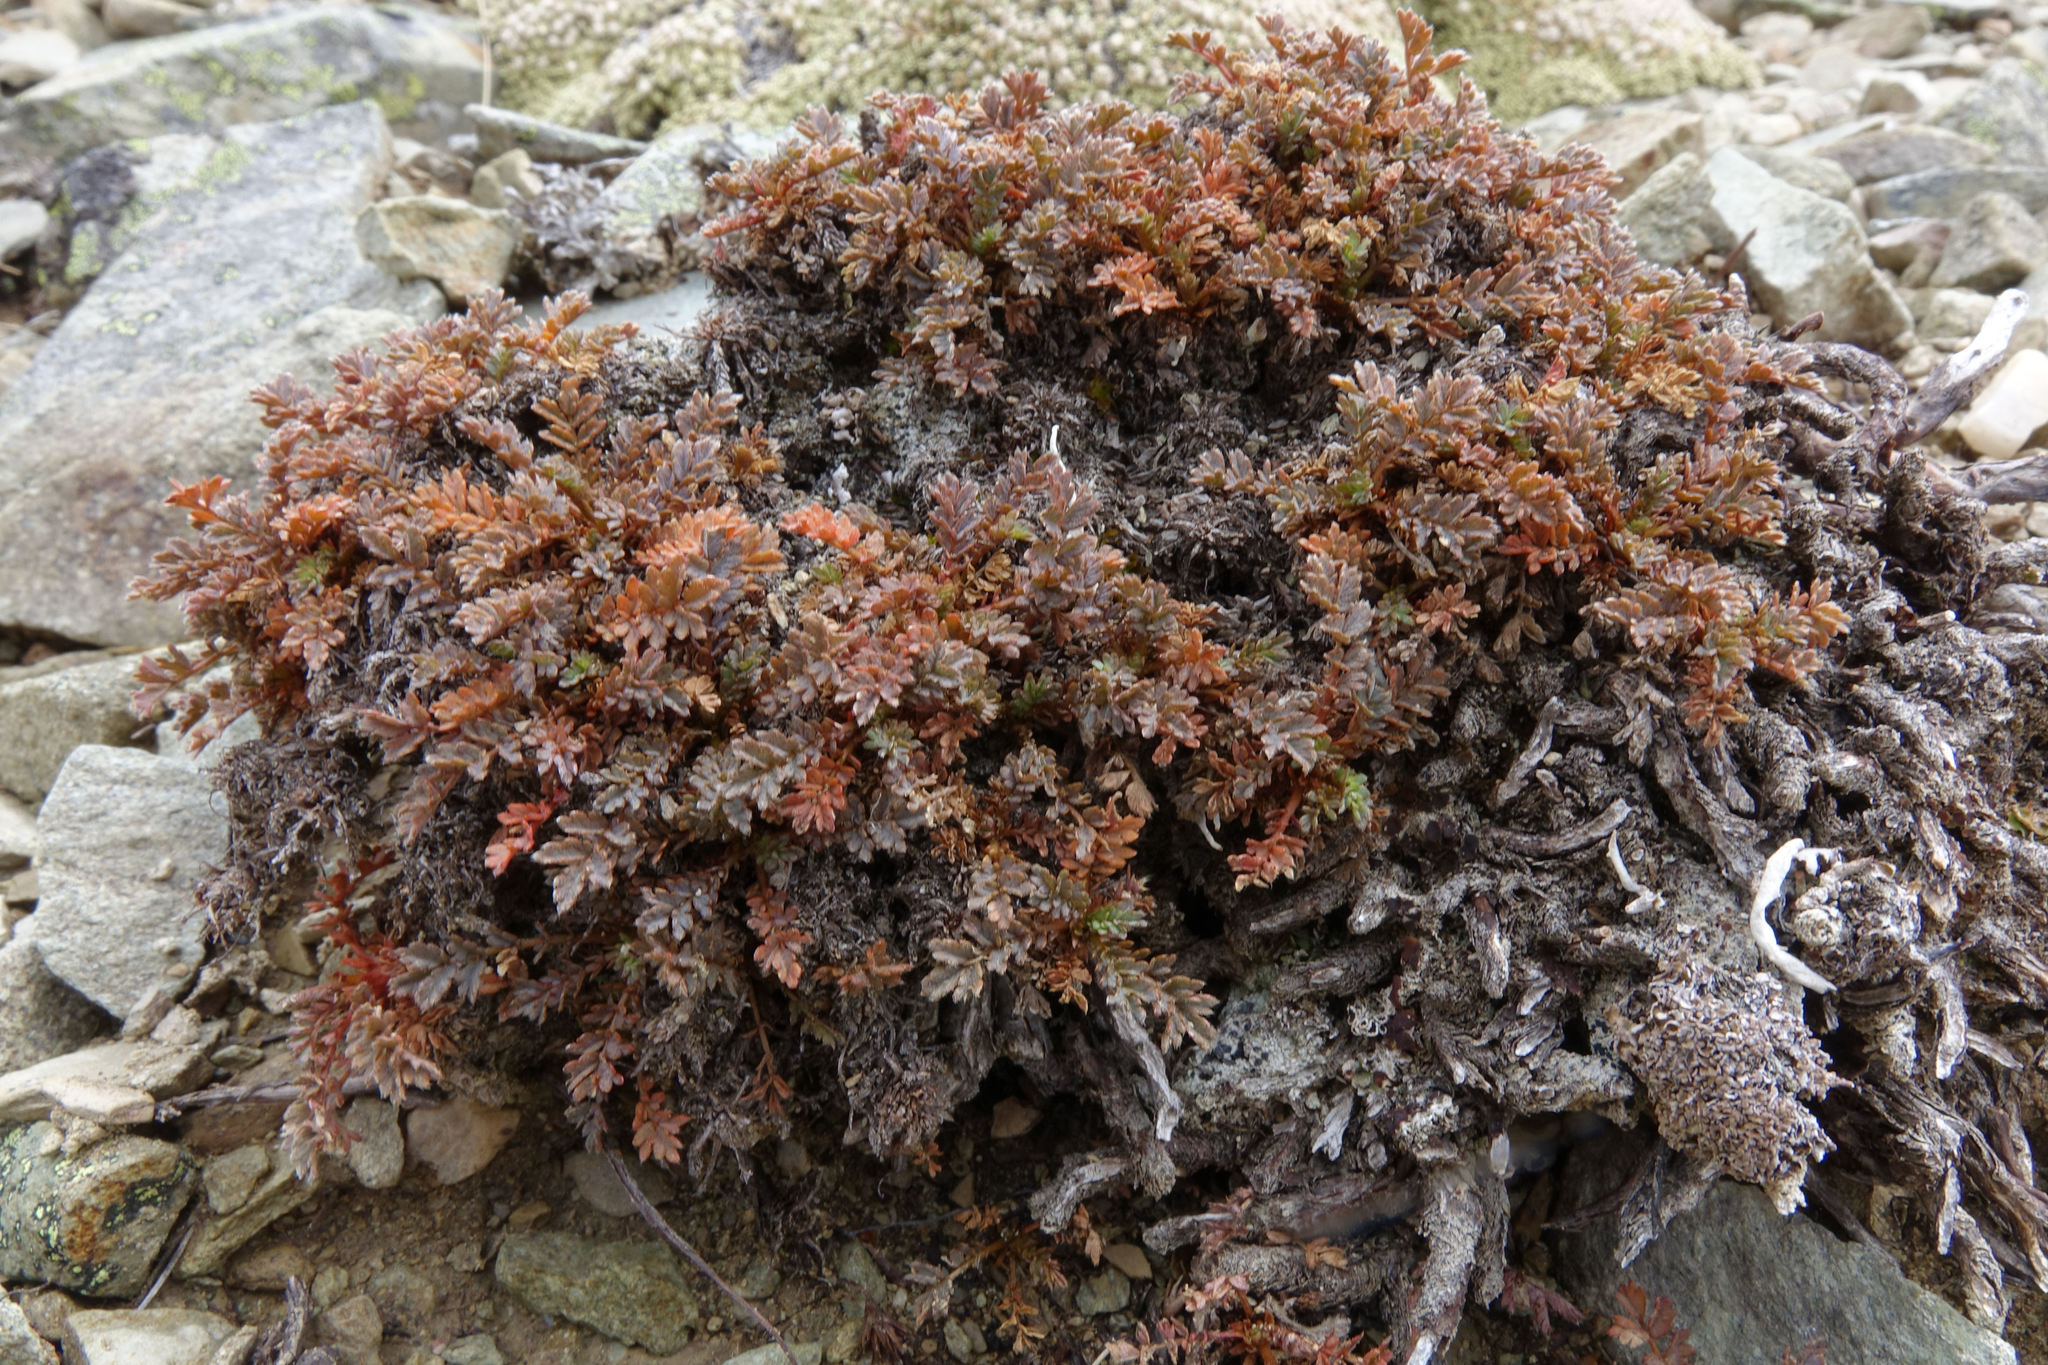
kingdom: Plantae
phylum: Tracheophyta
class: Magnoliopsida
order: Rosales
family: Rosaceae
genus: Acaena
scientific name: Acaena saccaticupula
